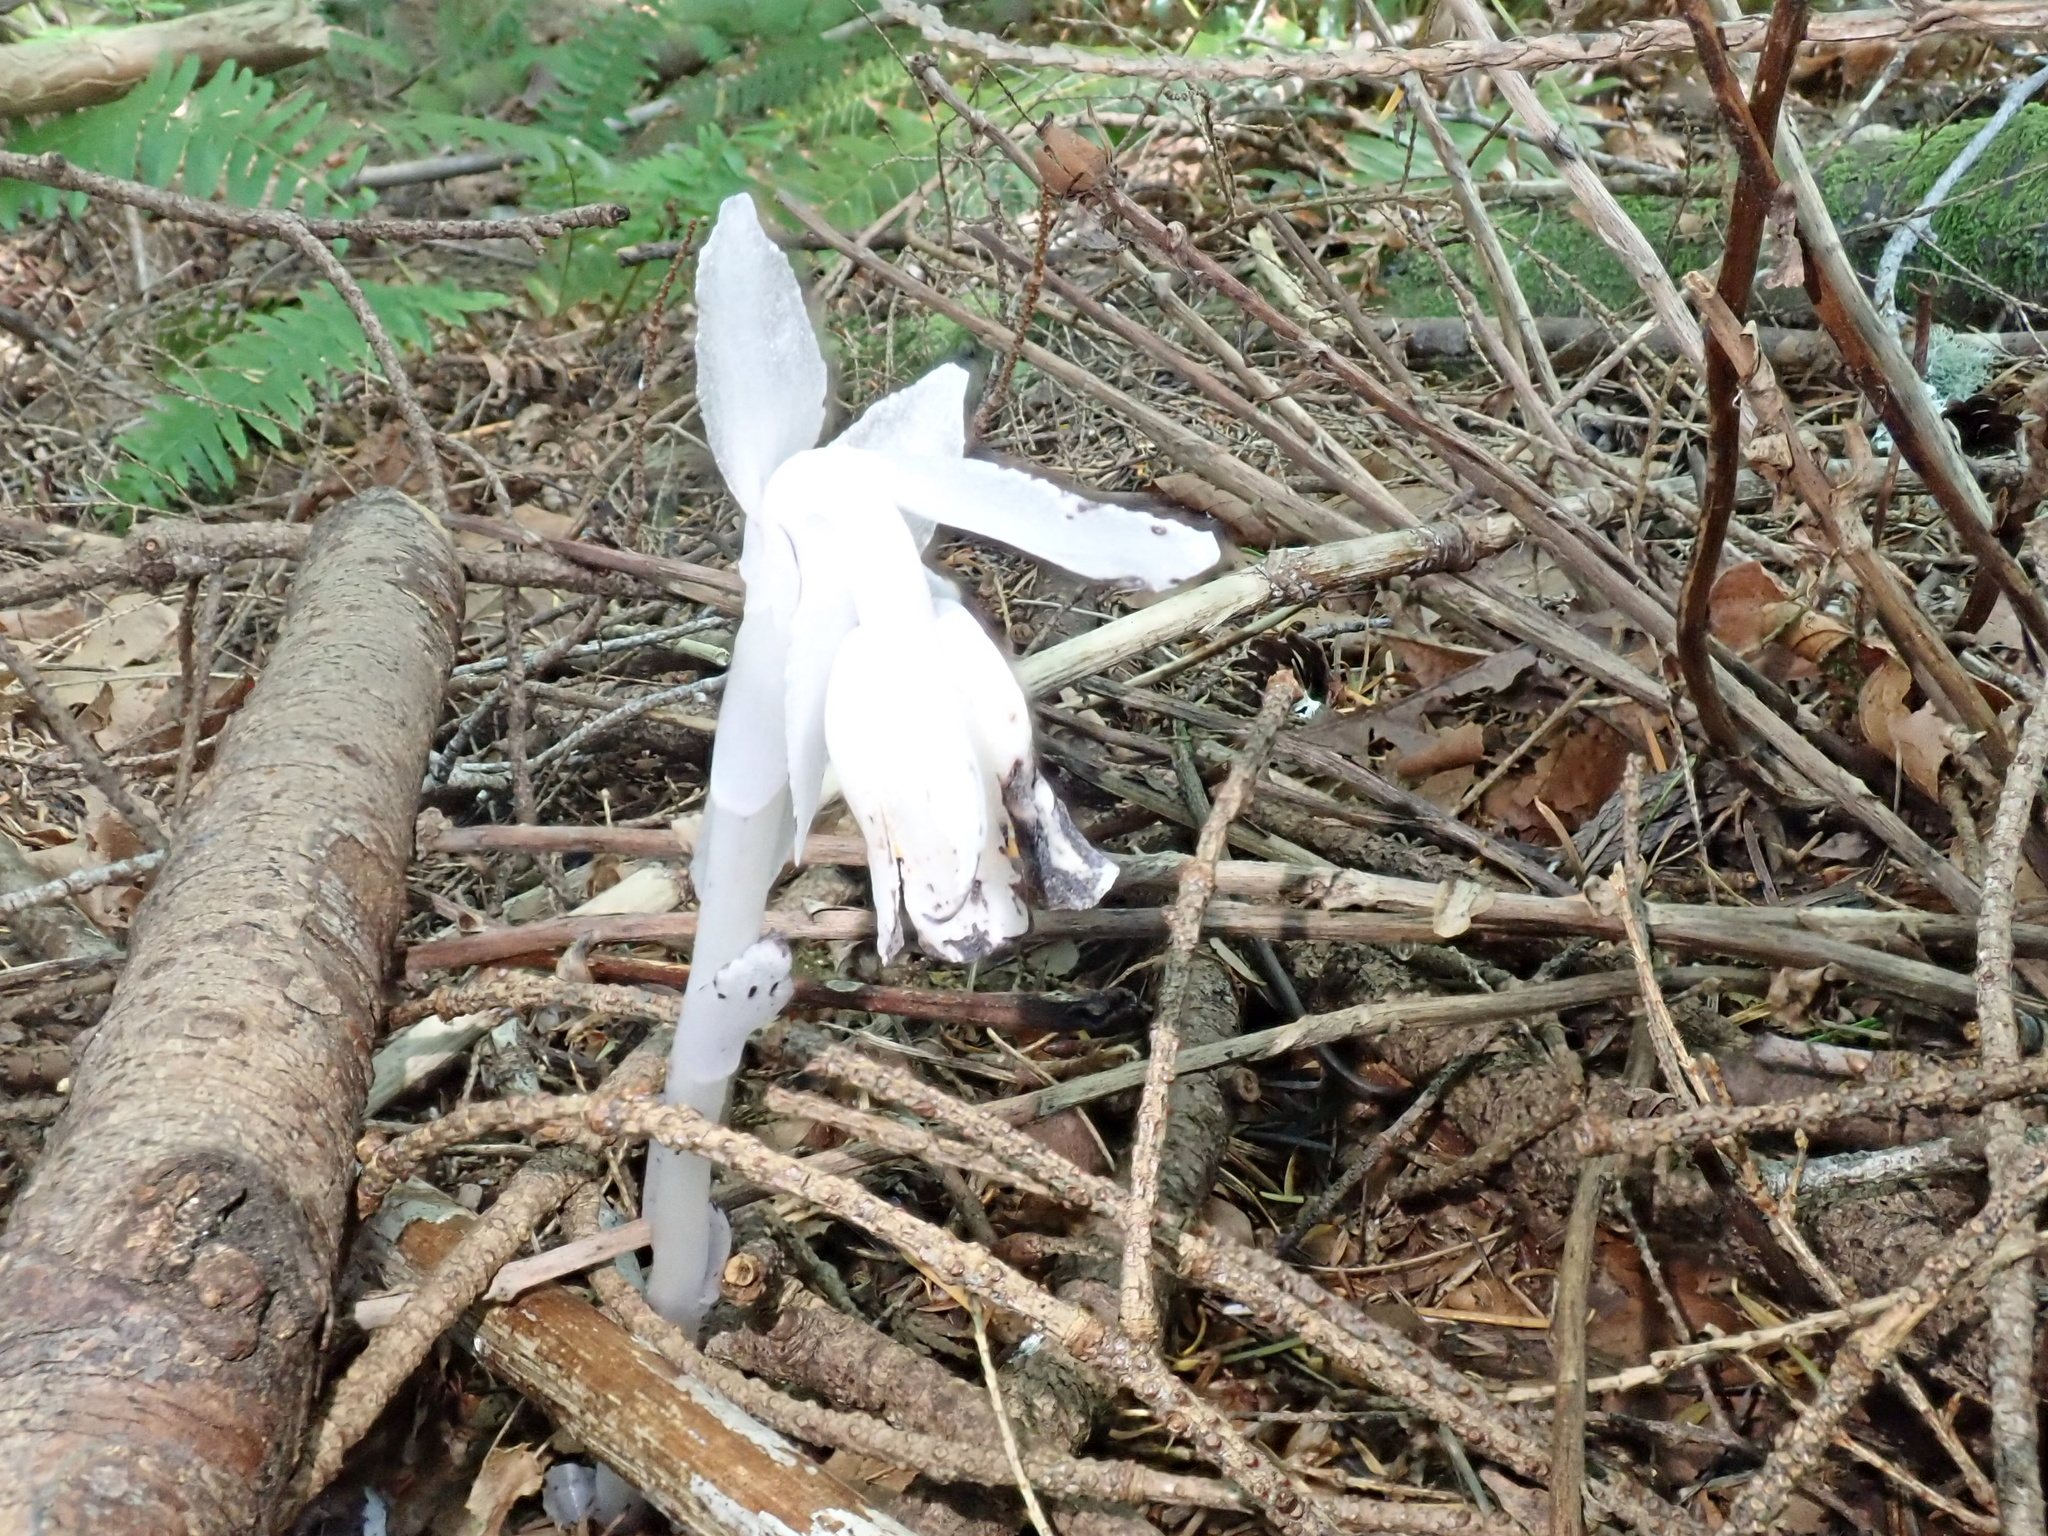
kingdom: Plantae
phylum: Tracheophyta
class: Magnoliopsida
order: Ericales
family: Ericaceae
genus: Monotropa
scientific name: Monotropa uniflora
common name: Convulsion root
